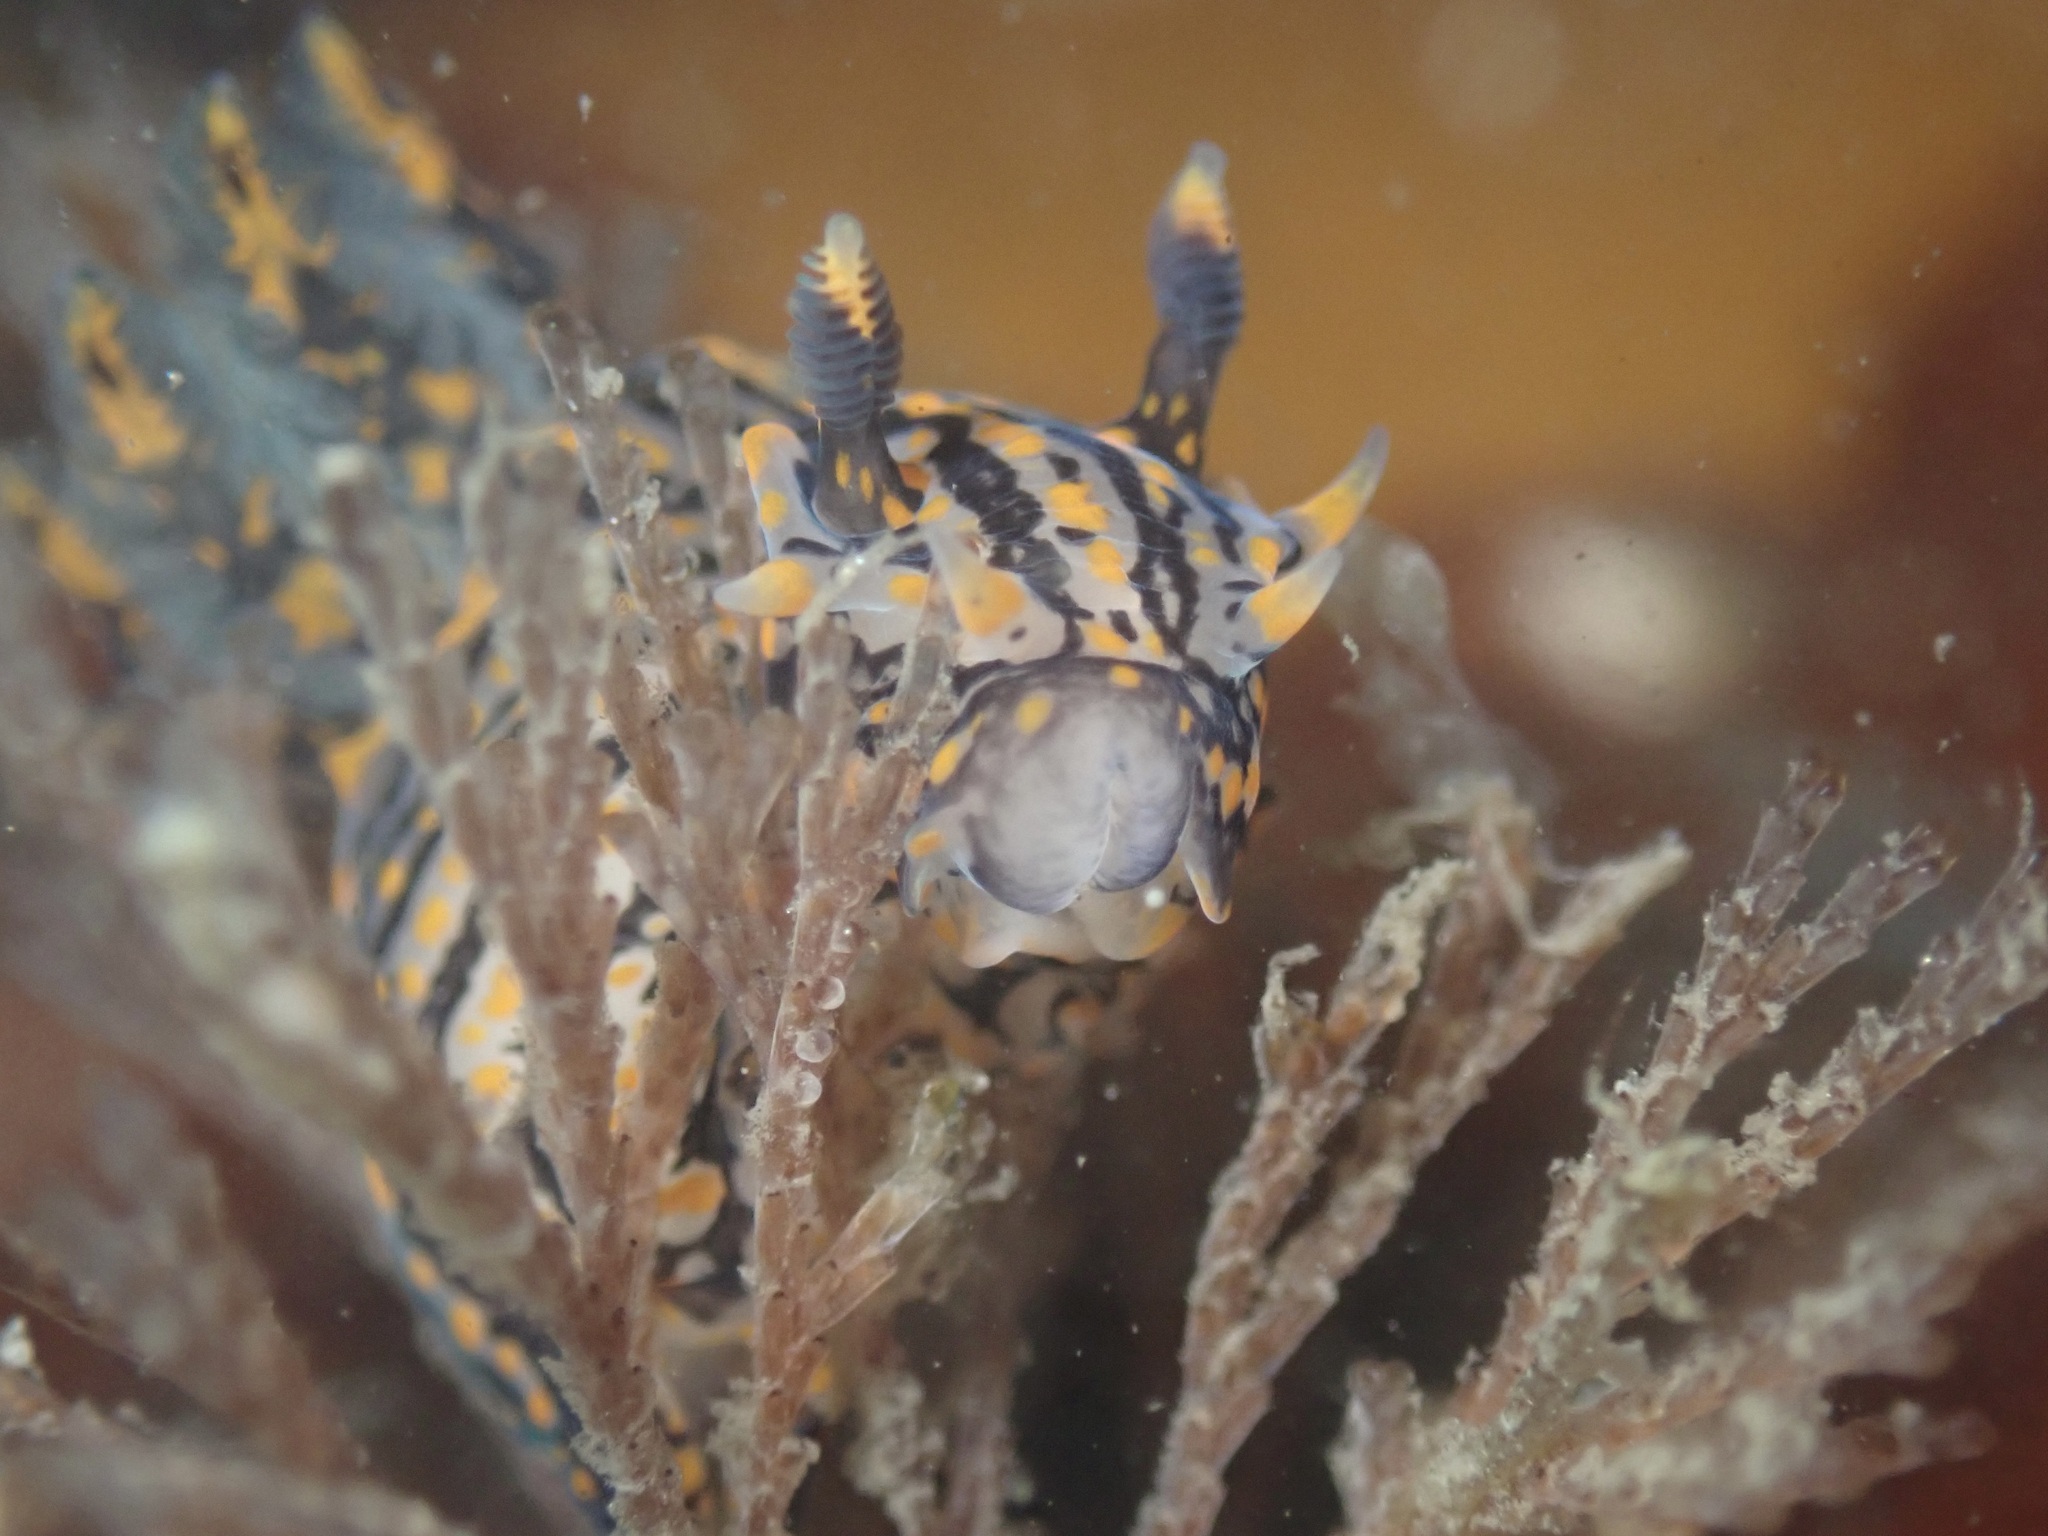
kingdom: Animalia
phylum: Mollusca
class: Gastropoda
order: Nudibranchia
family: Polyceridae
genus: Polycera
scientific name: Polycera atra
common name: Orange-spike polycera
